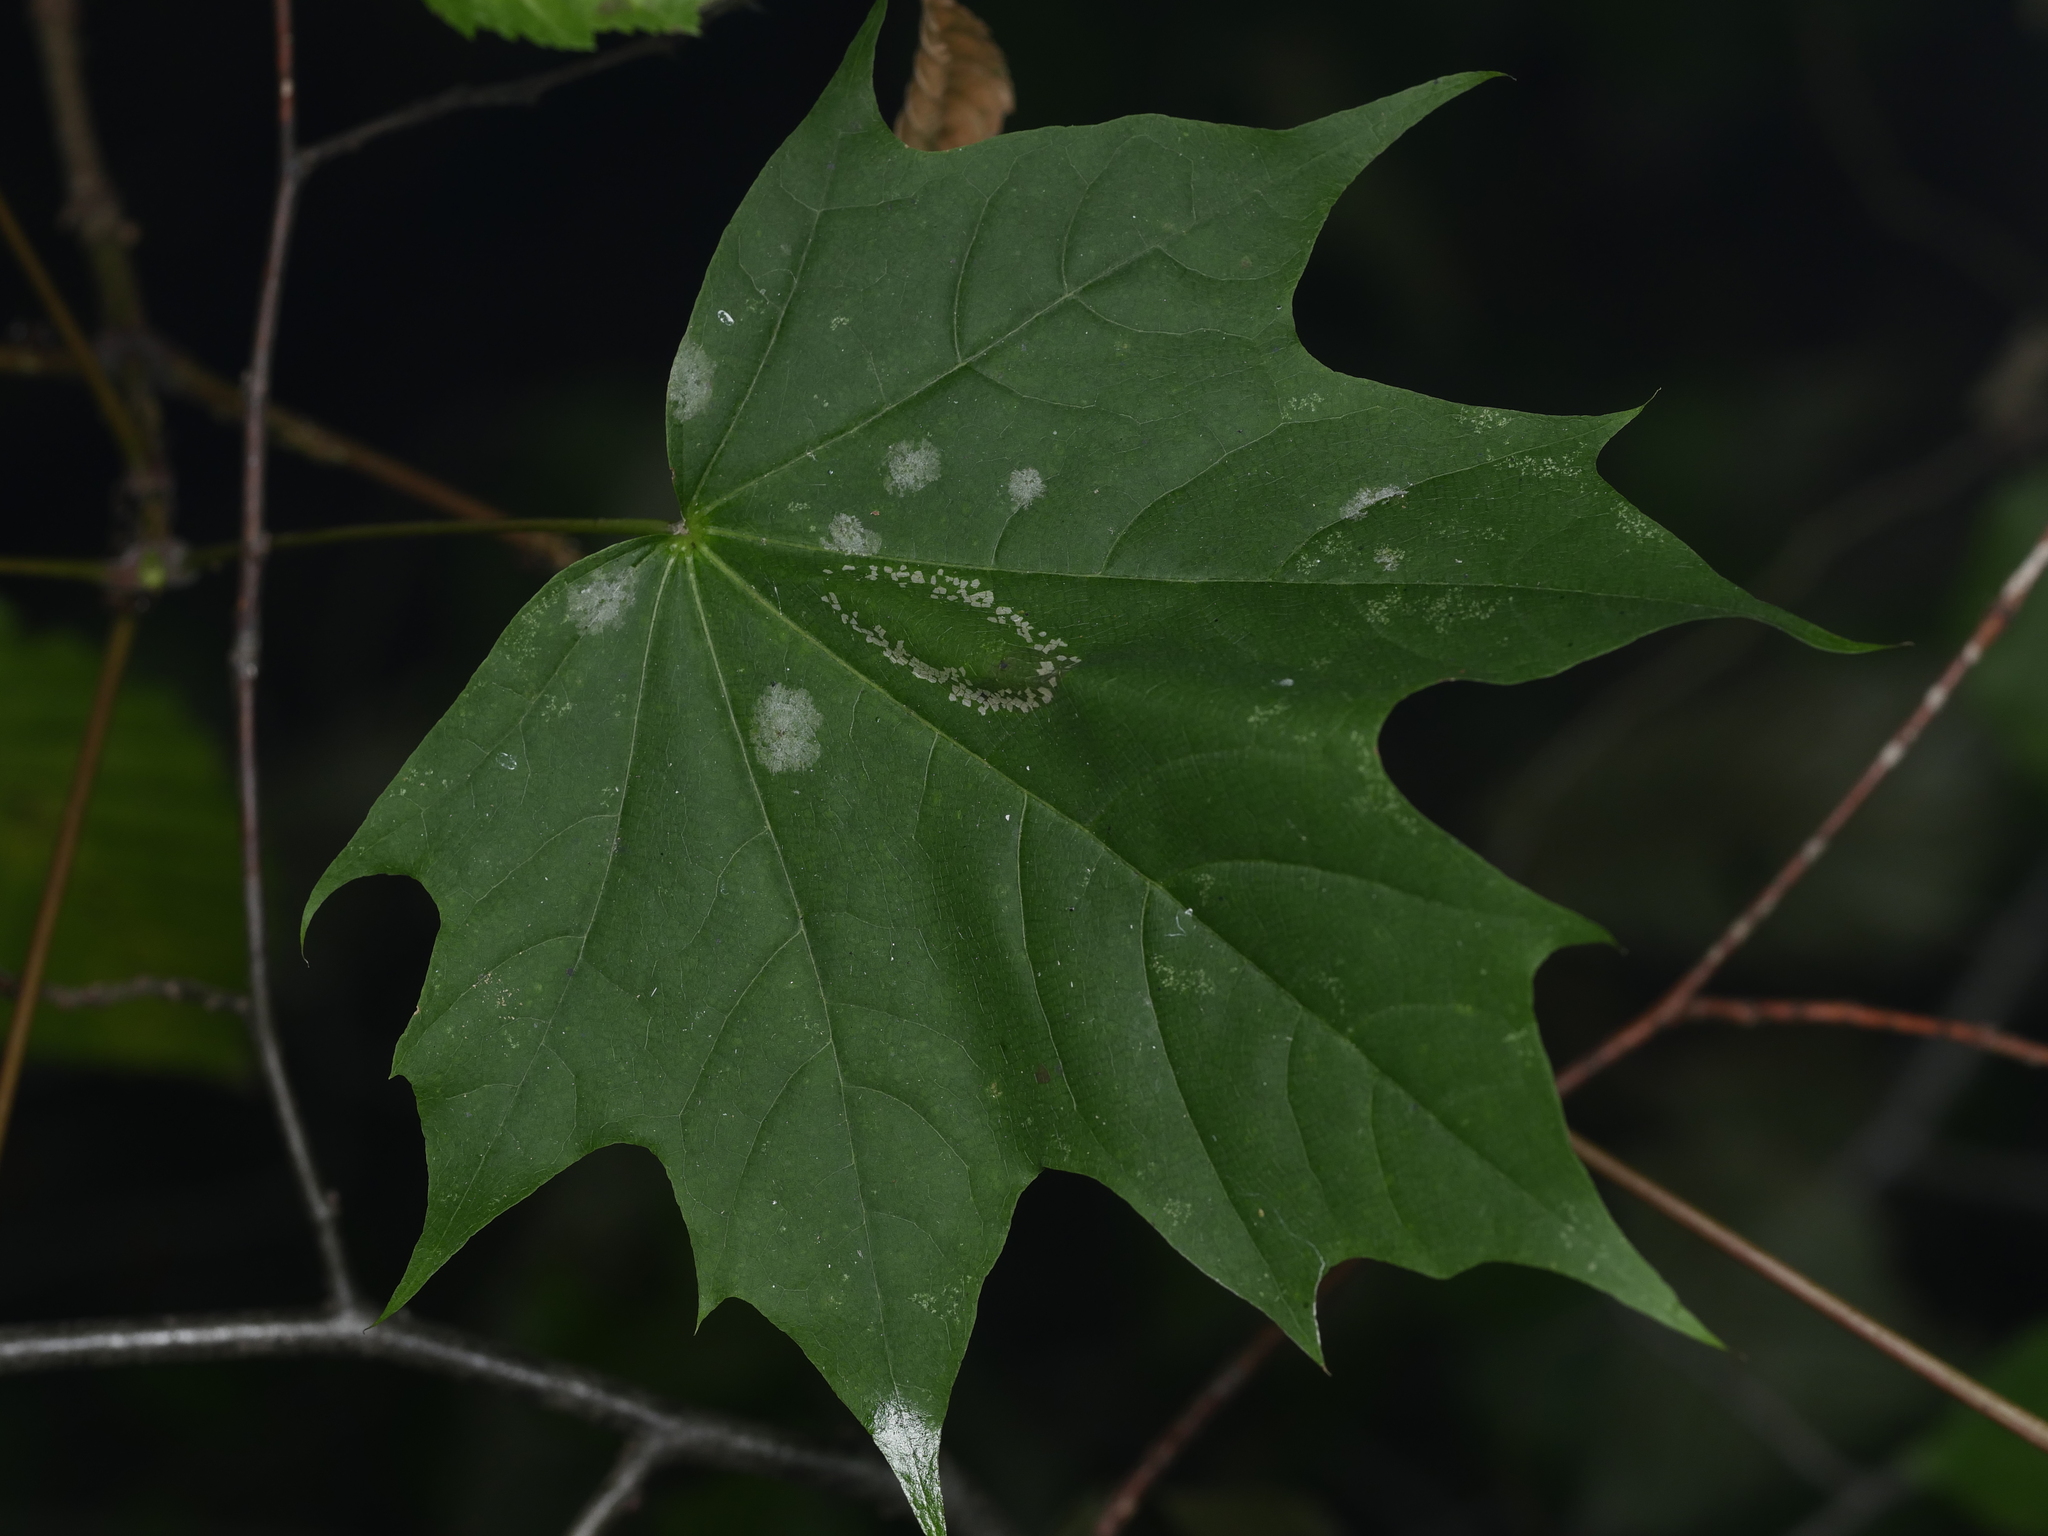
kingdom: Plantae
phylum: Tracheophyta
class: Magnoliopsida
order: Sapindales
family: Sapindaceae
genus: Acer
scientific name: Acer platanoides
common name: Norway maple
